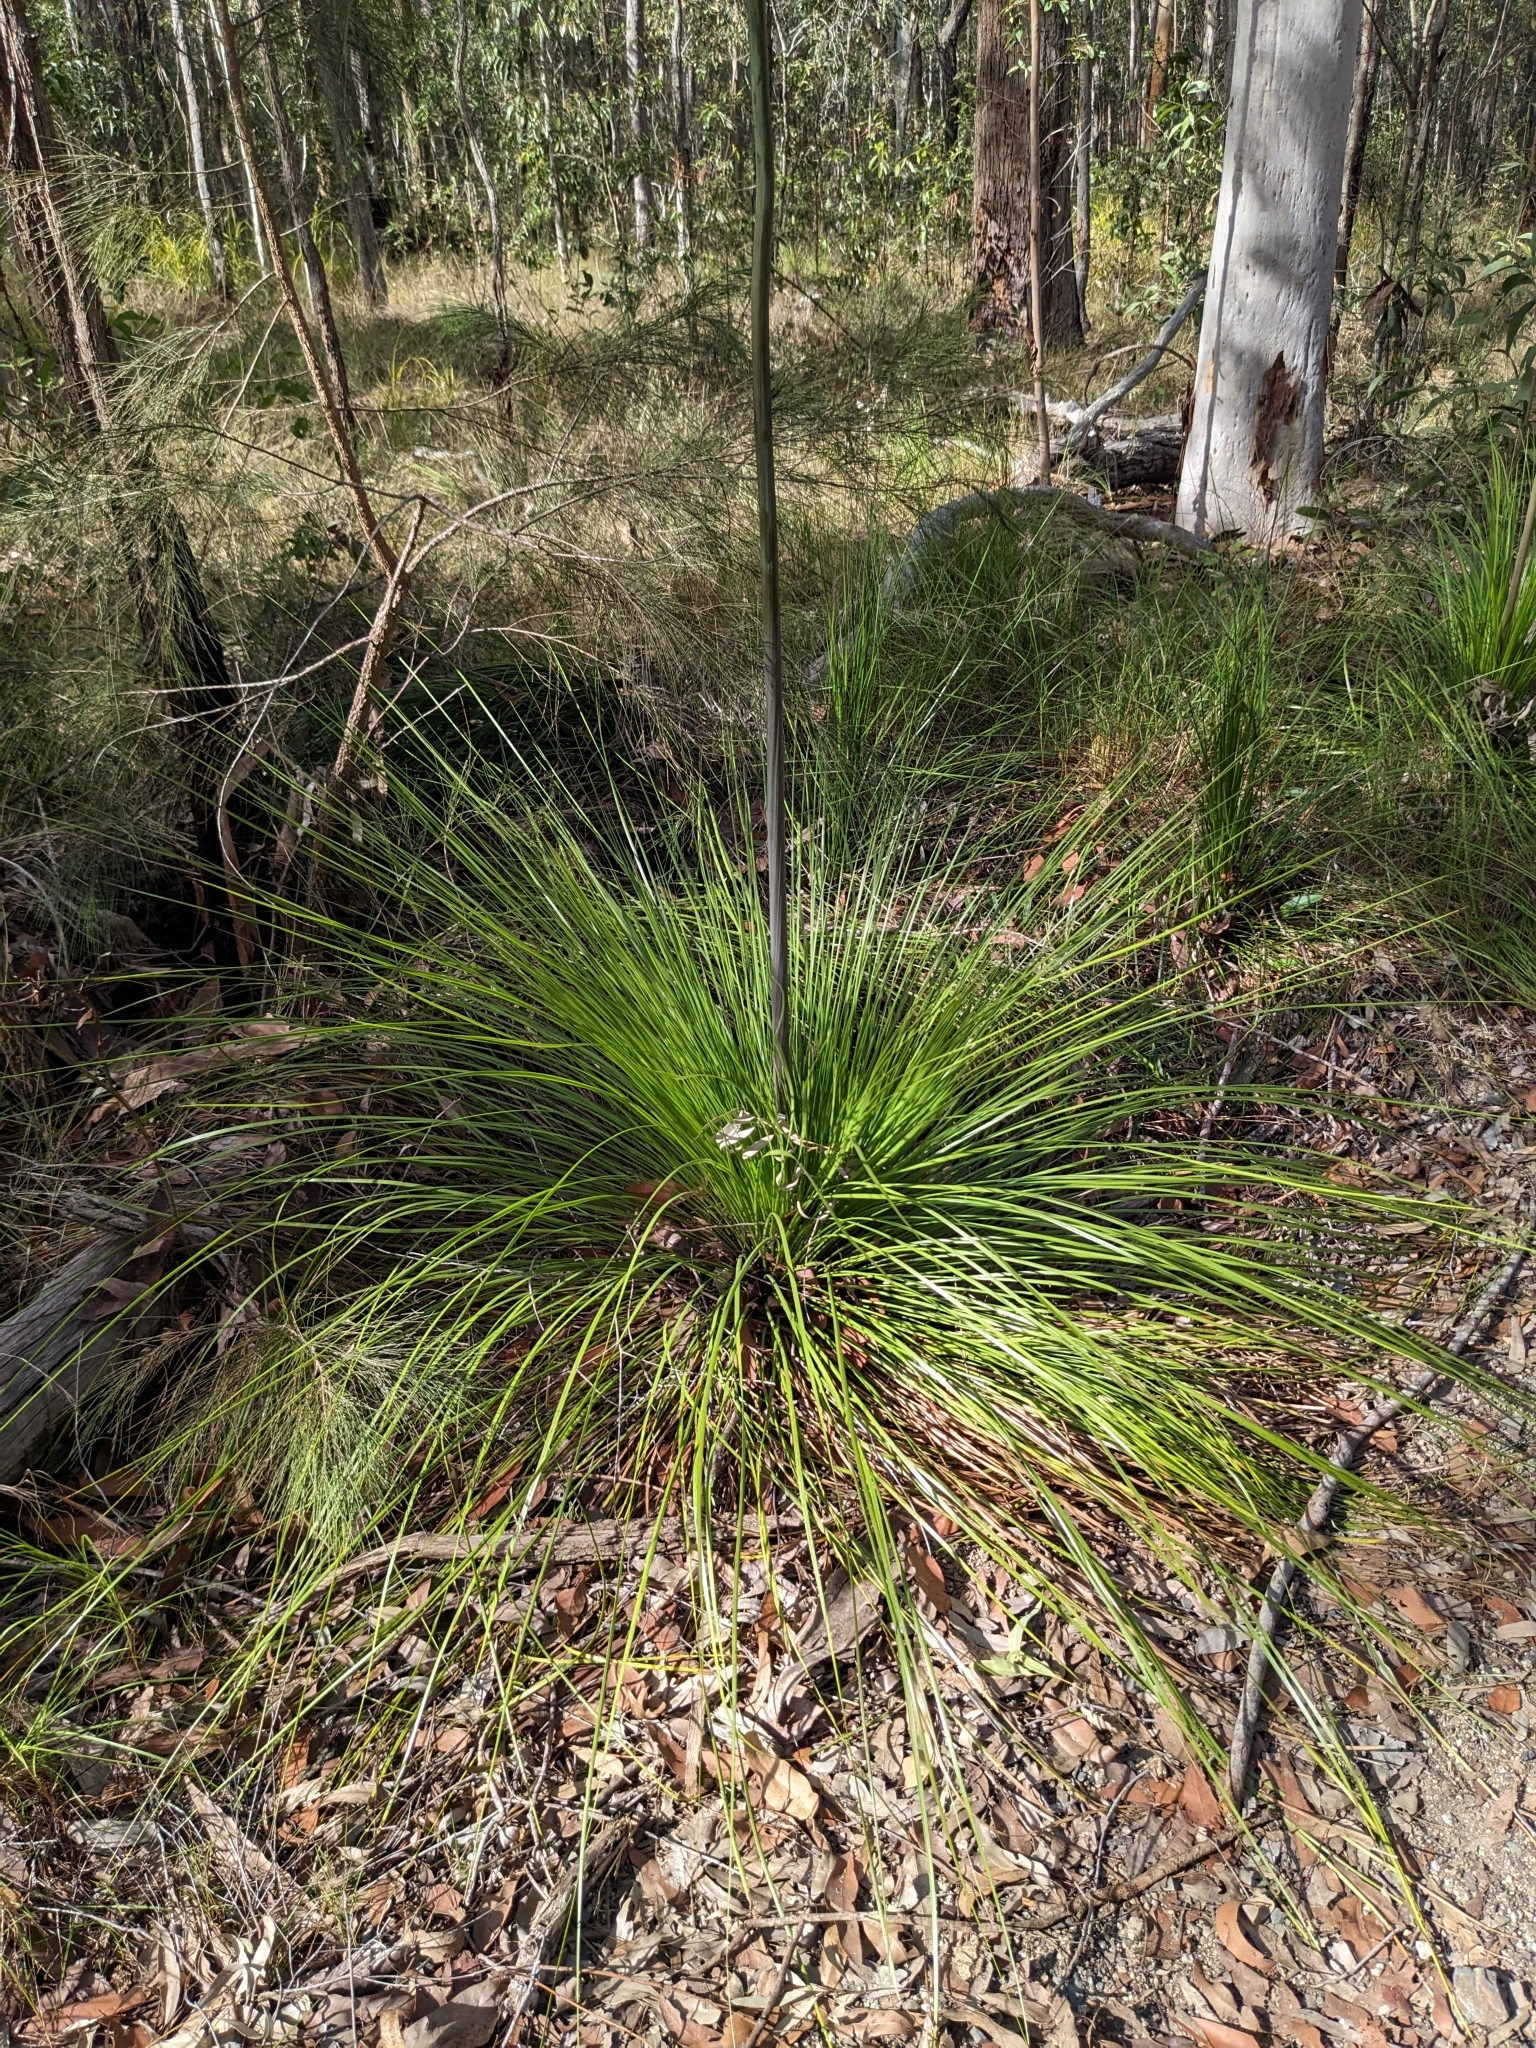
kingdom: Plantae
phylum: Tracheophyta
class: Liliopsida
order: Asparagales
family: Asphodelaceae
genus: Xanthorrhoea
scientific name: Xanthorrhoea latifolia
